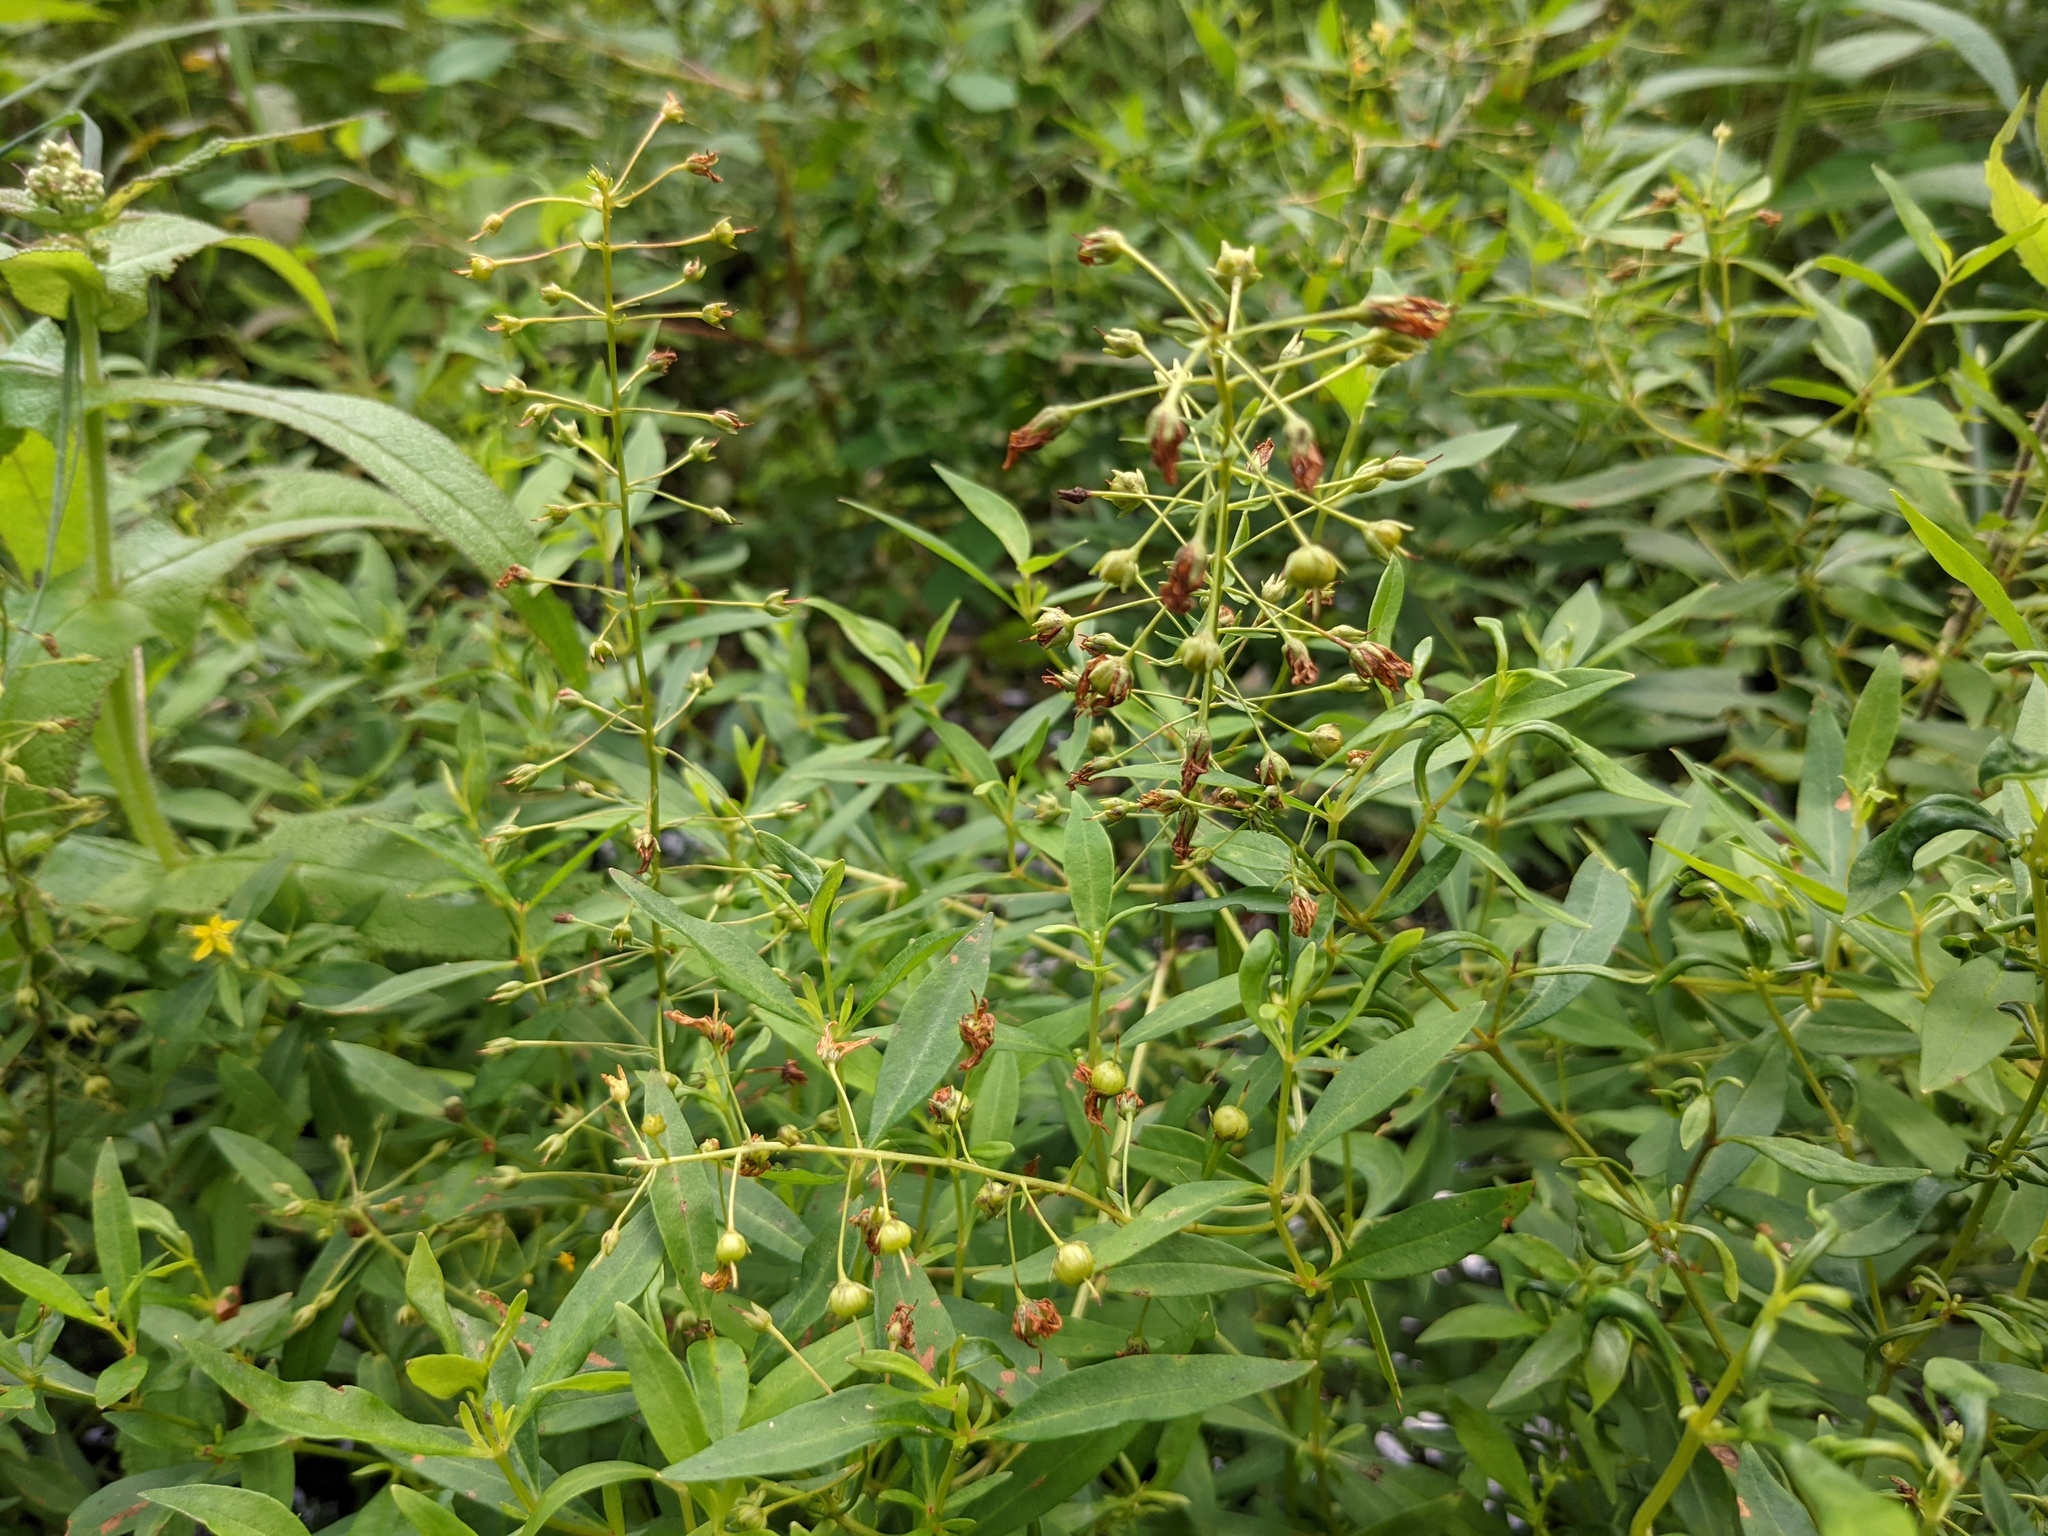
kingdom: Plantae
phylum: Tracheophyta
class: Magnoliopsida
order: Ericales
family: Primulaceae
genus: Lysimachia
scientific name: Lysimachia terrestris
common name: Lake loosestrife
